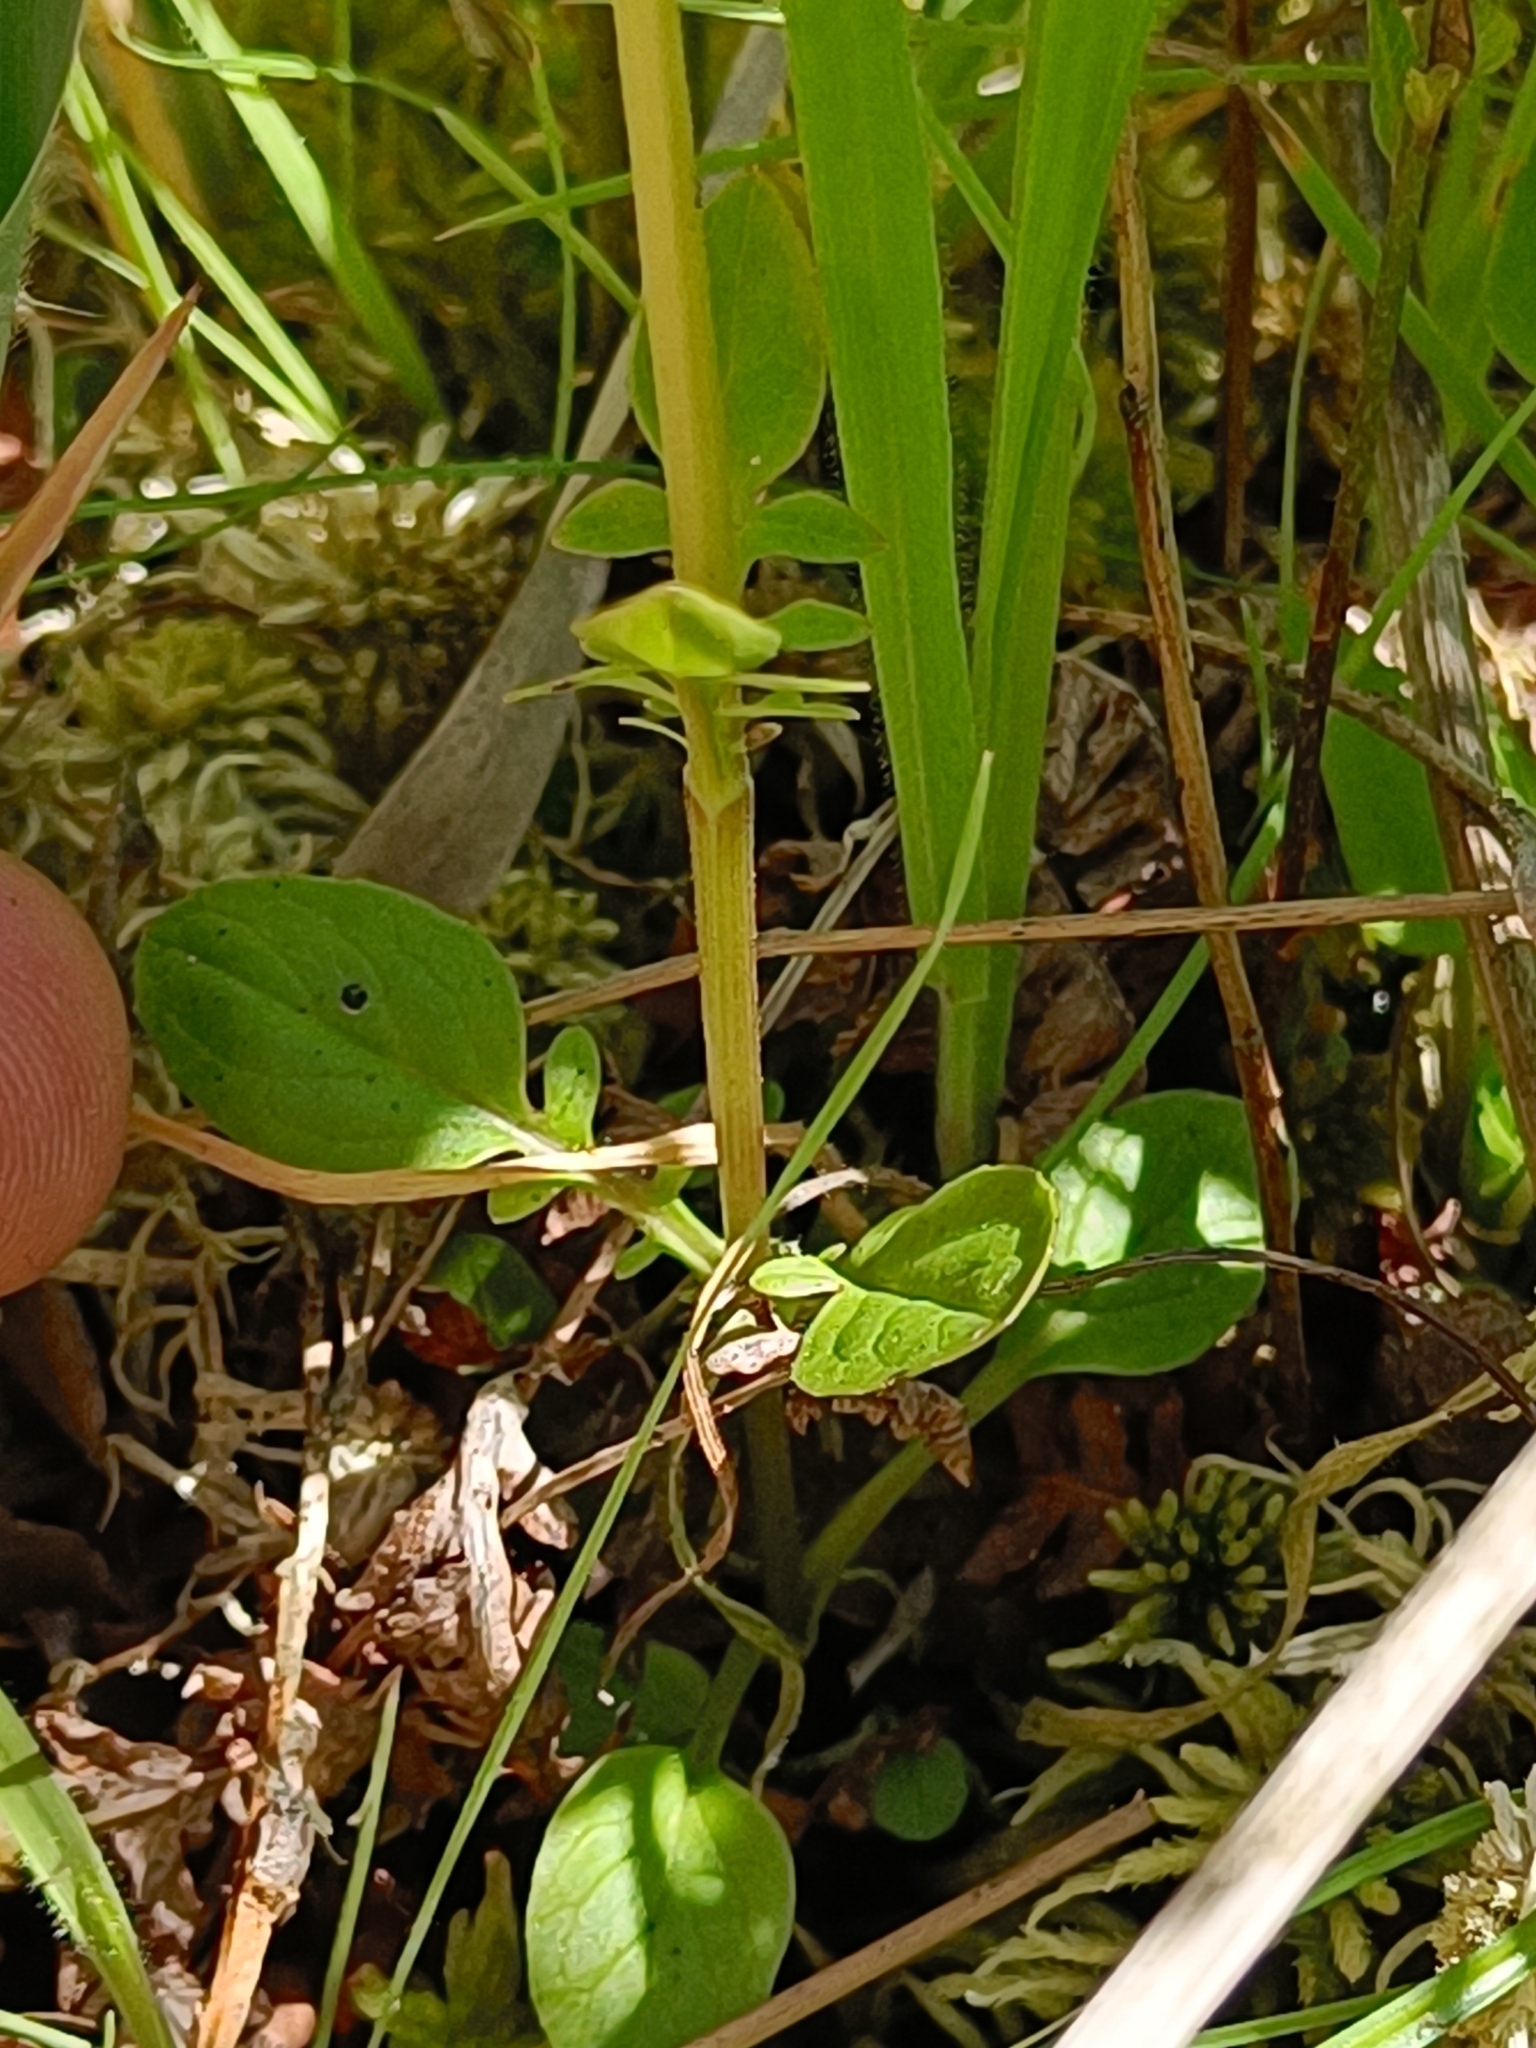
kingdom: Plantae
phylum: Tracheophyta
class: Magnoliopsida
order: Dipsacales
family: Caprifoliaceae
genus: Valeriana
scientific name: Valeriana dioica
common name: Marsh valerian
